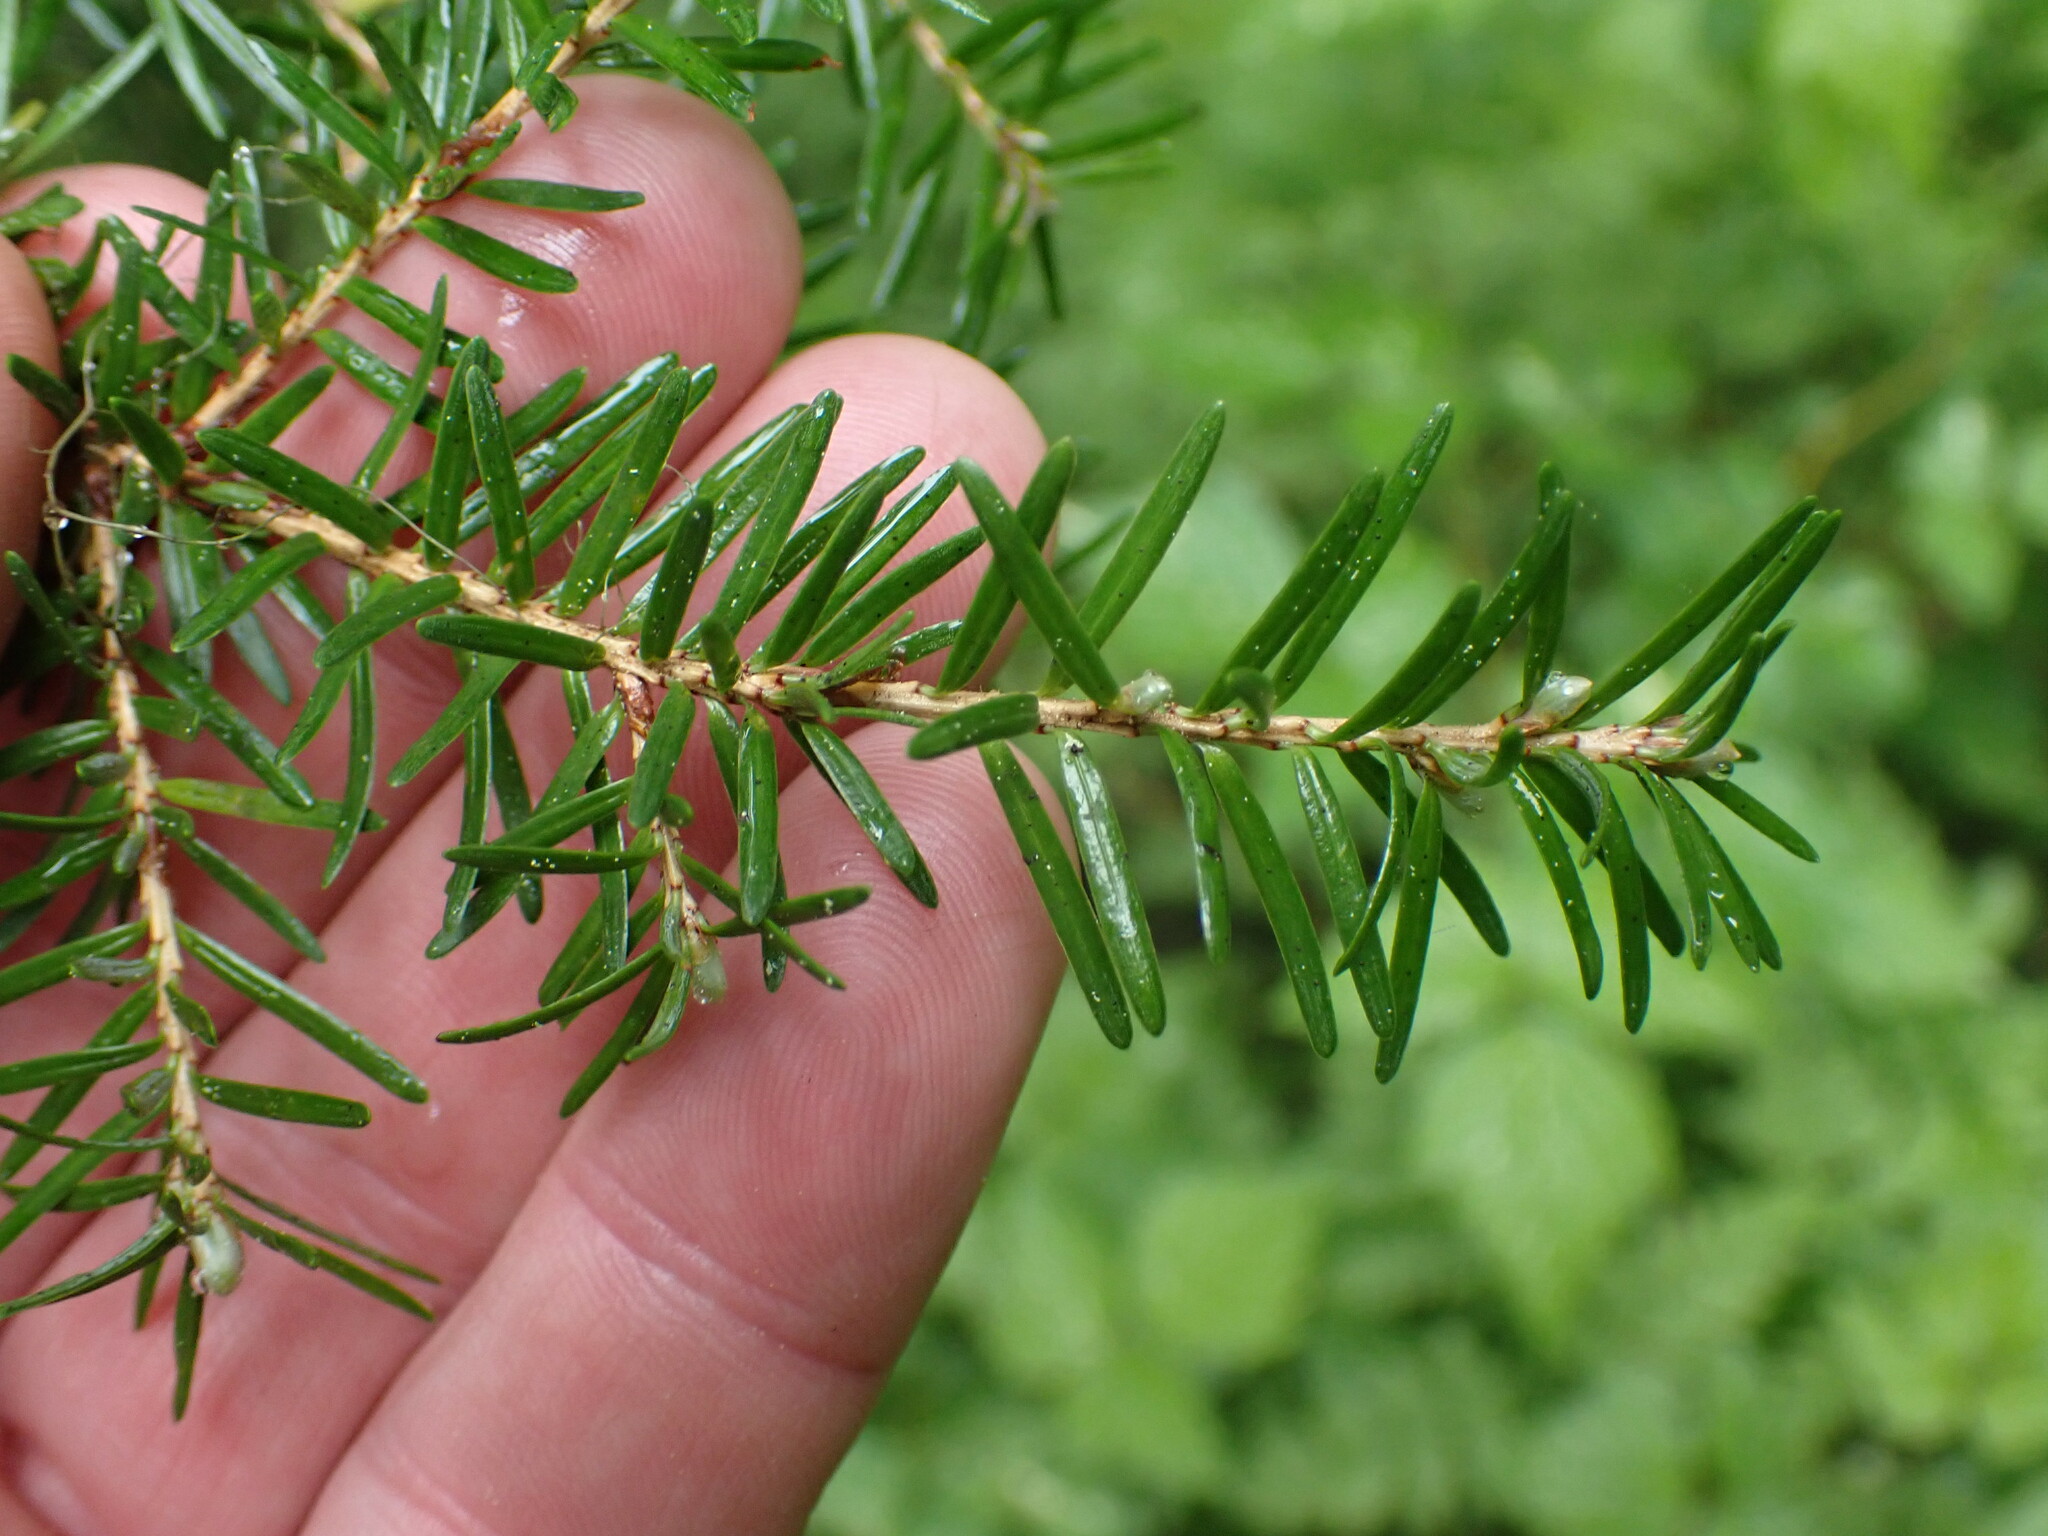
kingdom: Plantae
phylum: Tracheophyta
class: Pinopsida
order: Pinales
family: Pinaceae
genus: Tsuga
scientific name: Tsuga heterophylla
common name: Western hemlock
